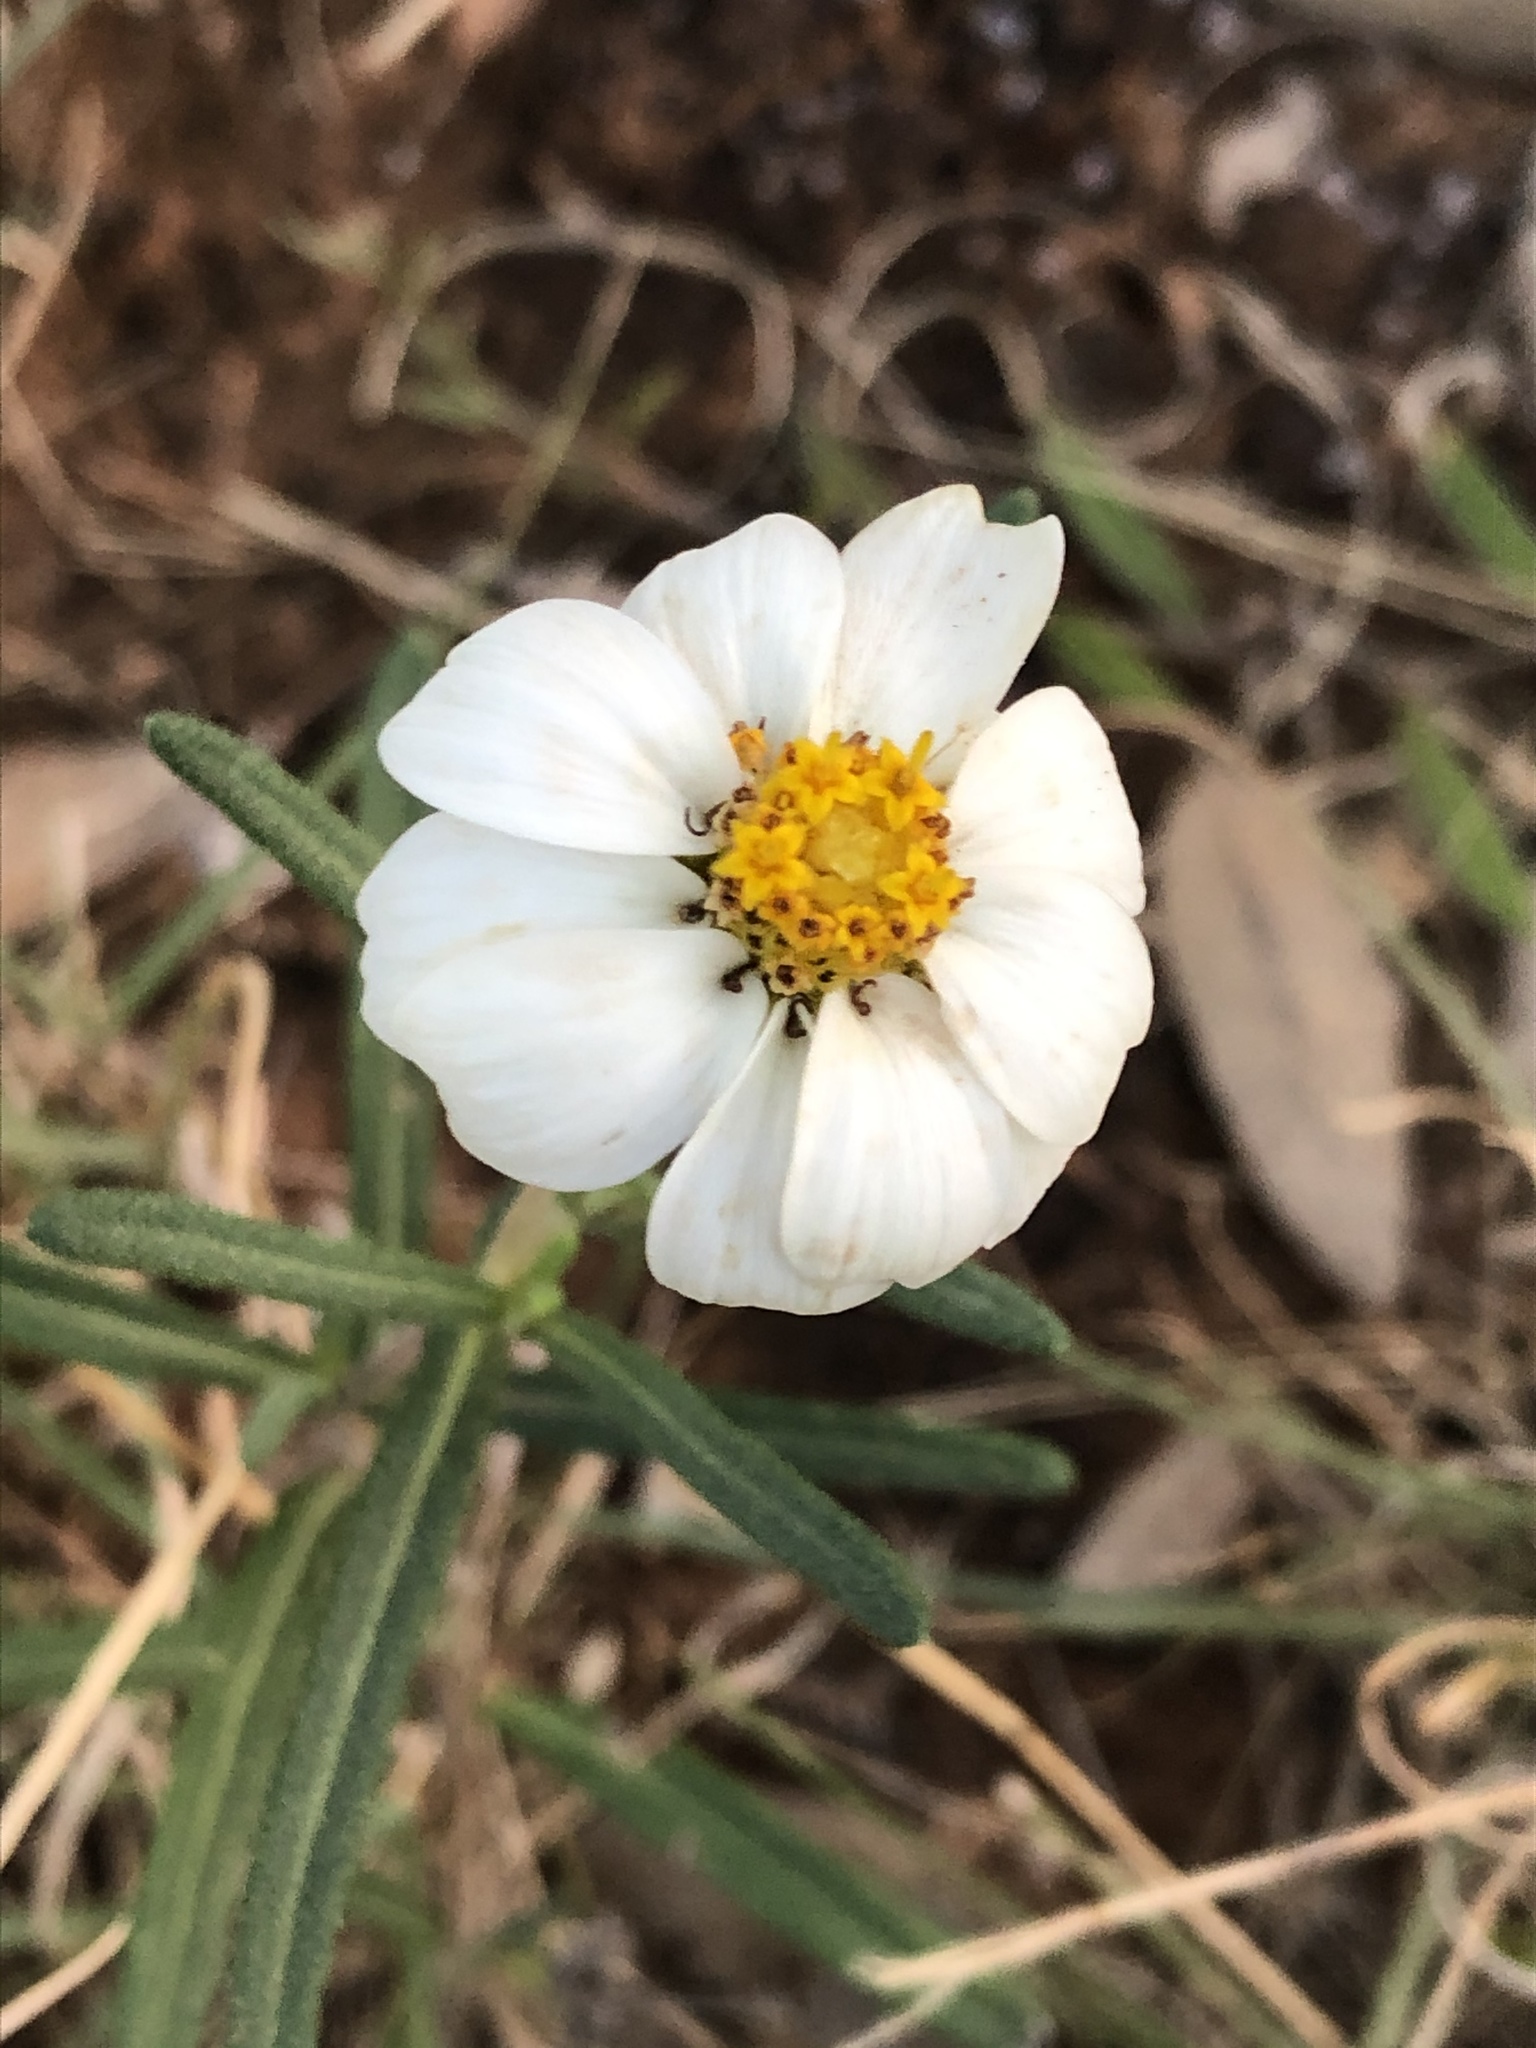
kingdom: Plantae
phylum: Tracheophyta
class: Magnoliopsida
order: Asterales
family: Asteraceae
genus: Melampodium
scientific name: Melampodium leucanthum
